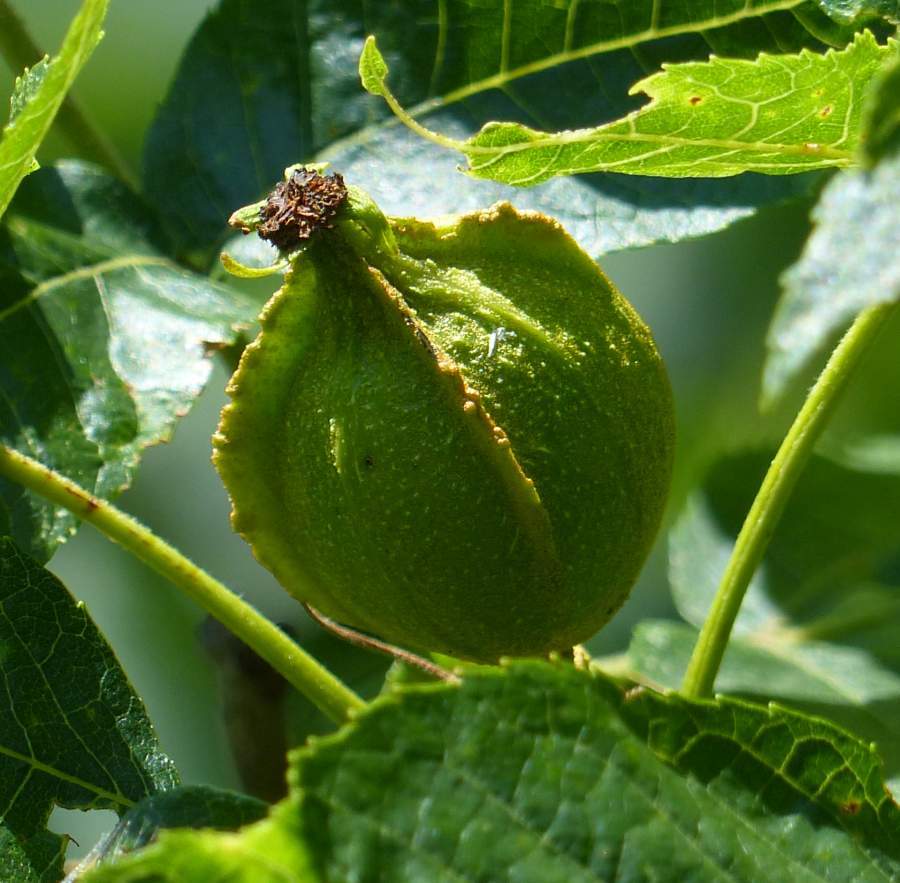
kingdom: Plantae
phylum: Tracheophyta
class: Magnoliopsida
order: Fagales
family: Juglandaceae
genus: Carya
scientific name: Carya cordiformis
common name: Bitternut hickory
